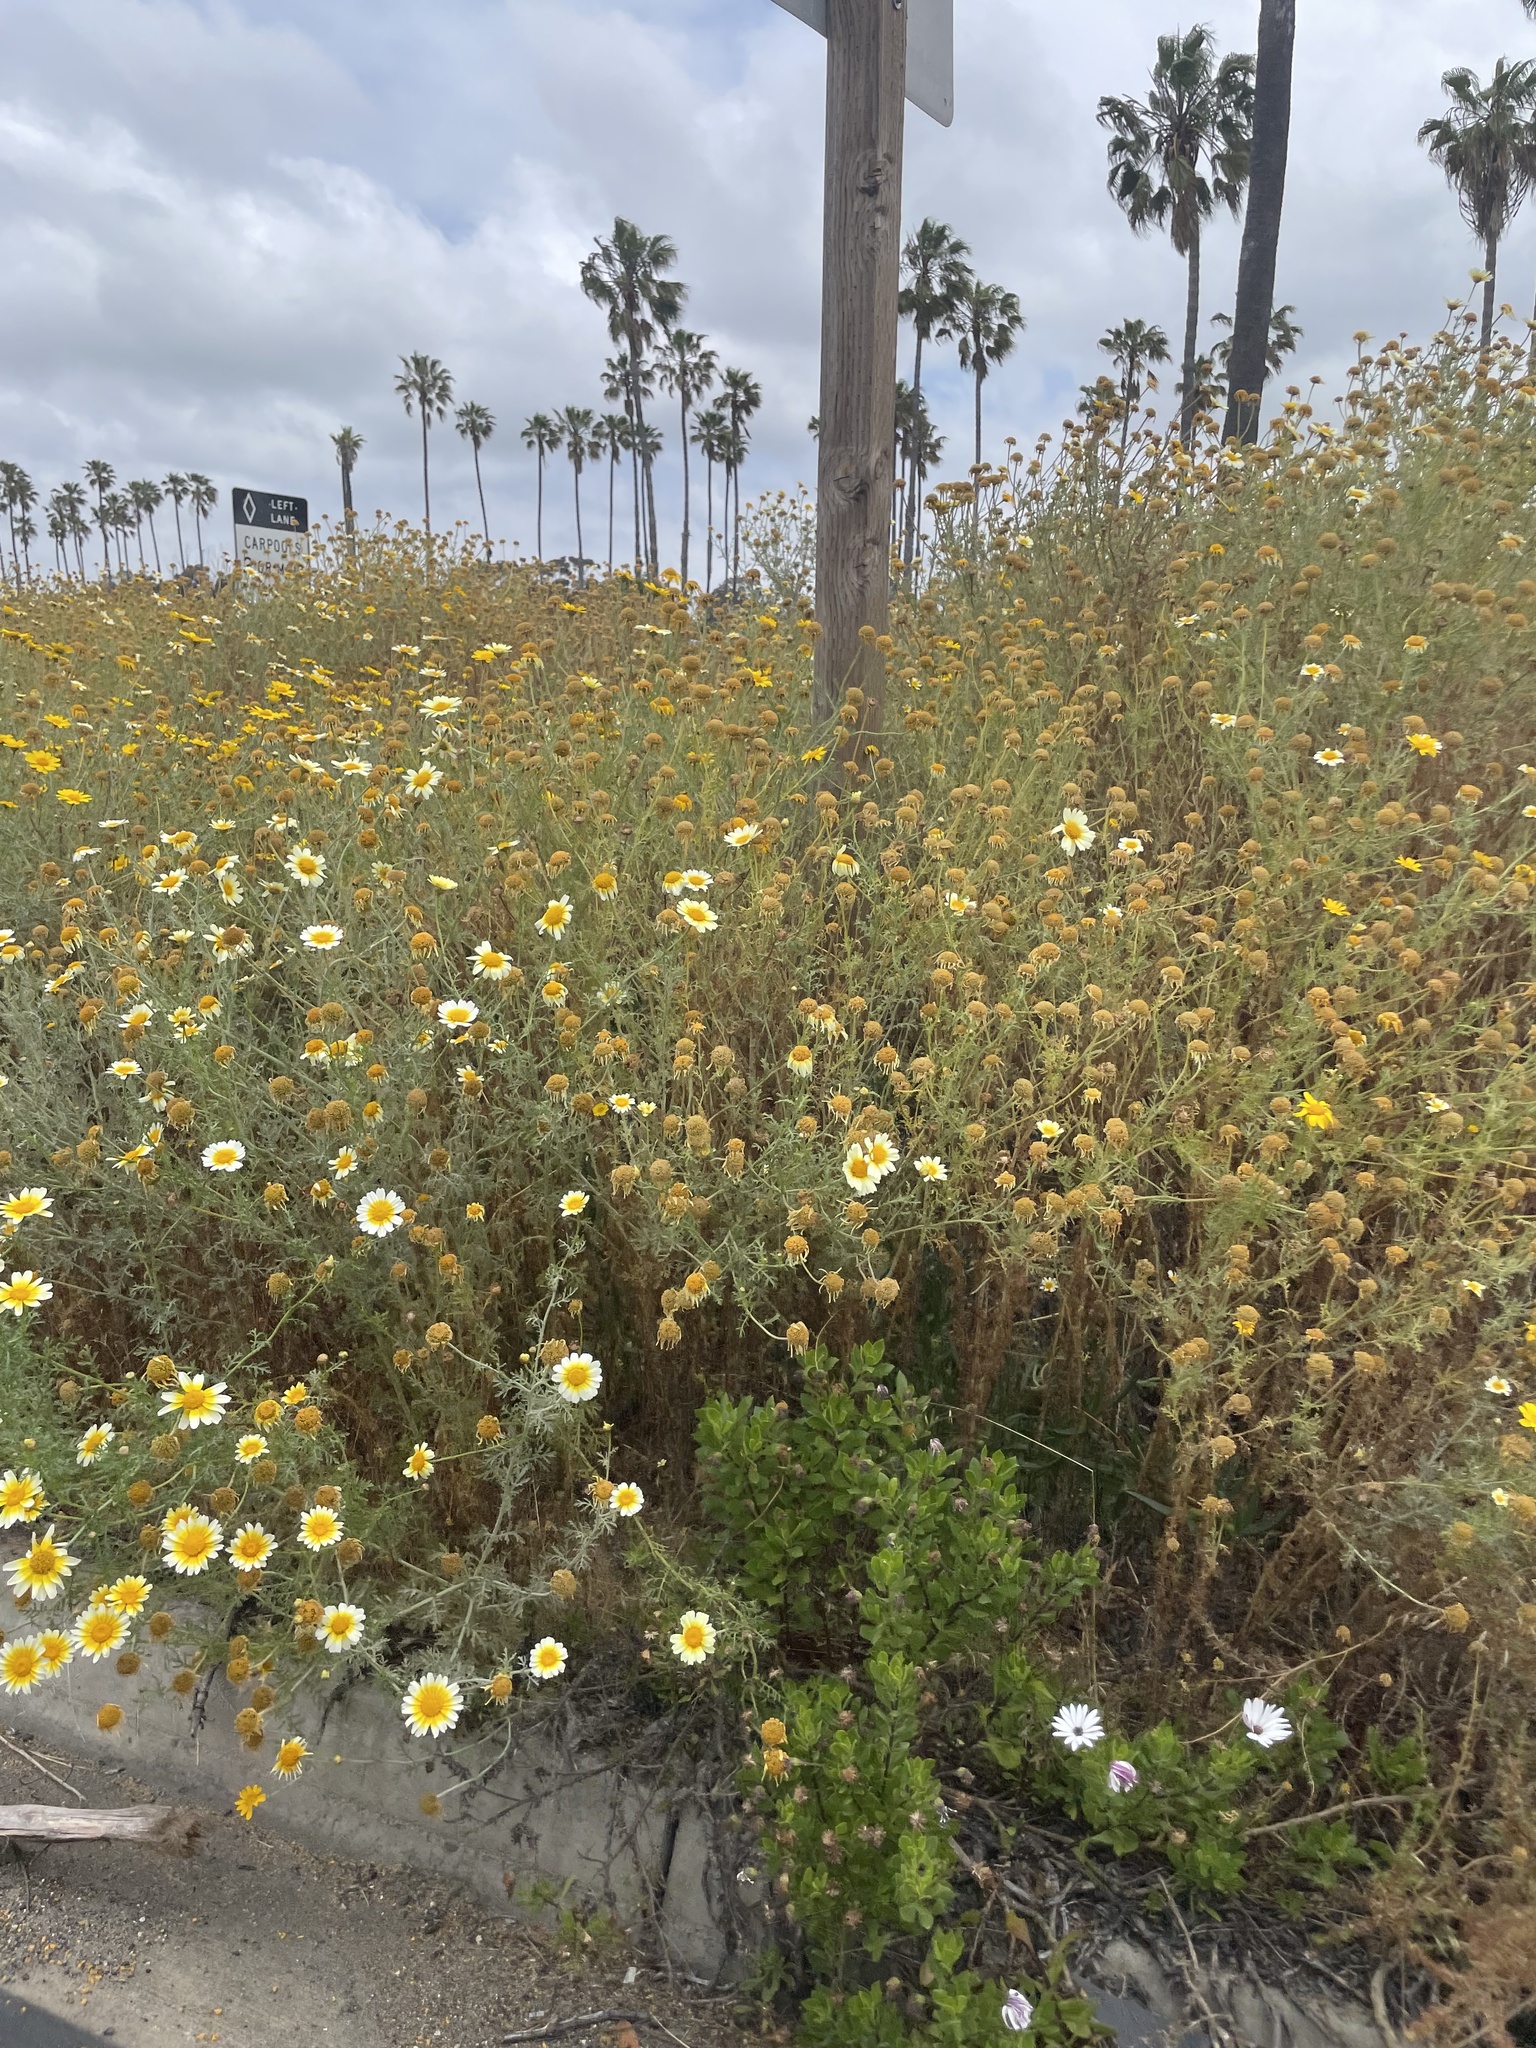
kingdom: Plantae
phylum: Tracheophyta
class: Magnoliopsida
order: Asterales
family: Asteraceae
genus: Glebionis
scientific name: Glebionis coronaria
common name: Crowndaisy
